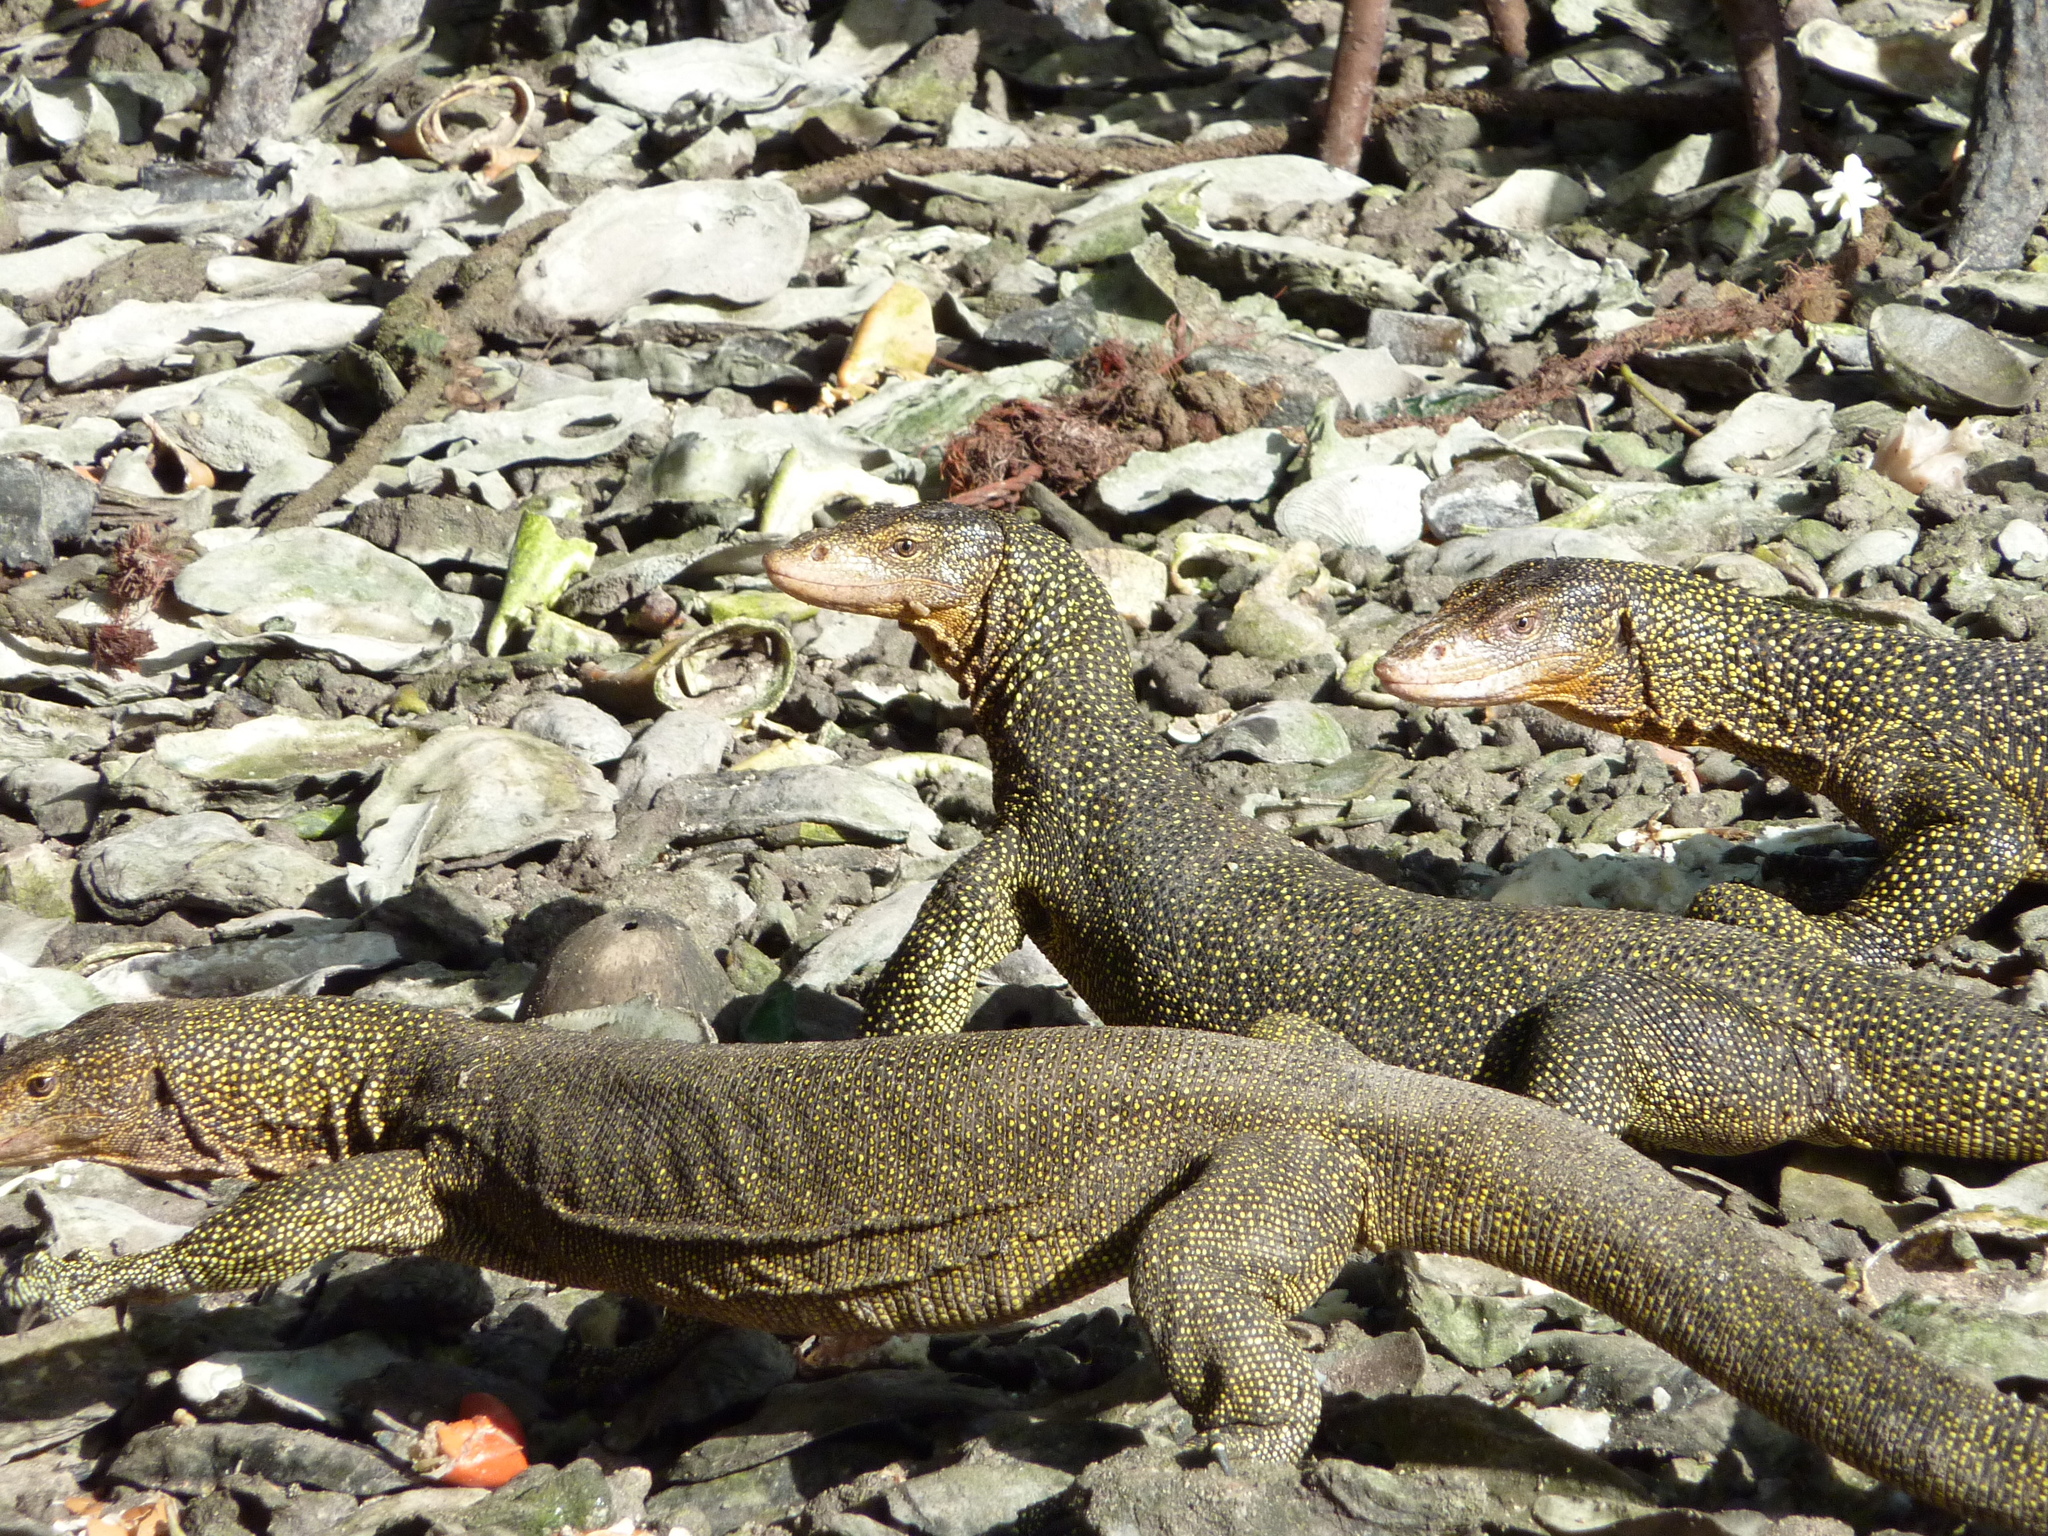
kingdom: Animalia
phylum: Chordata
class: Squamata
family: Varanidae
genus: Varanus
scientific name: Varanus indicus
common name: Mangrove monitor
